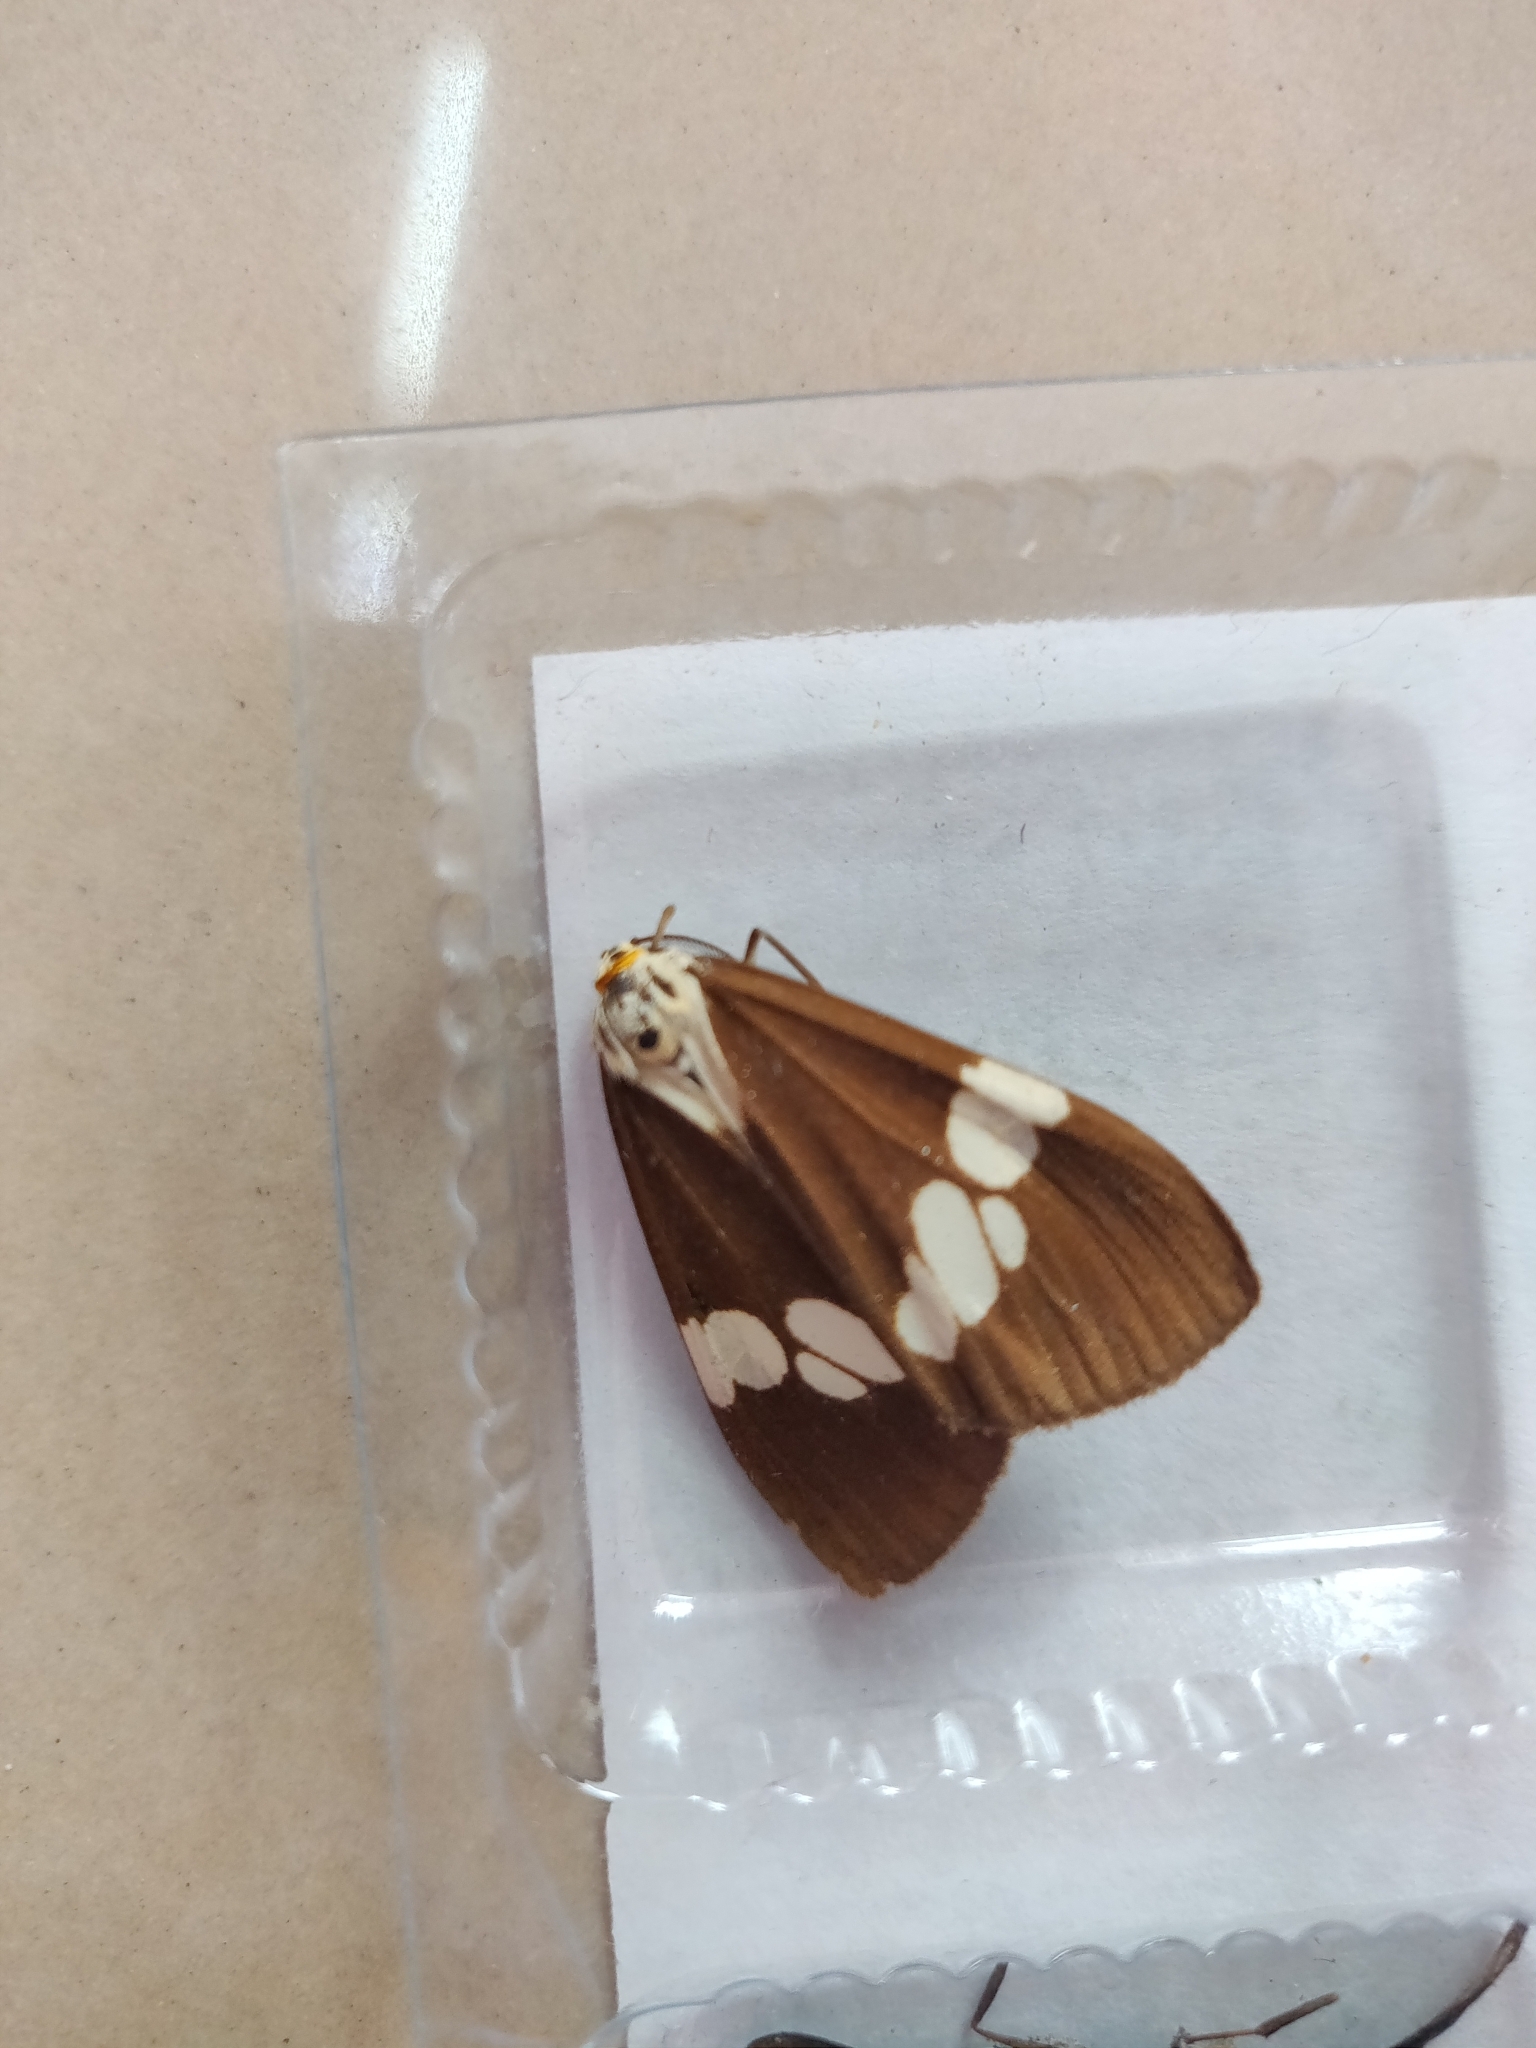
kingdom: Animalia
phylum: Arthropoda
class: Insecta
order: Lepidoptera
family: Erebidae
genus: Nyctemera
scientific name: Nyctemera lacticinia
